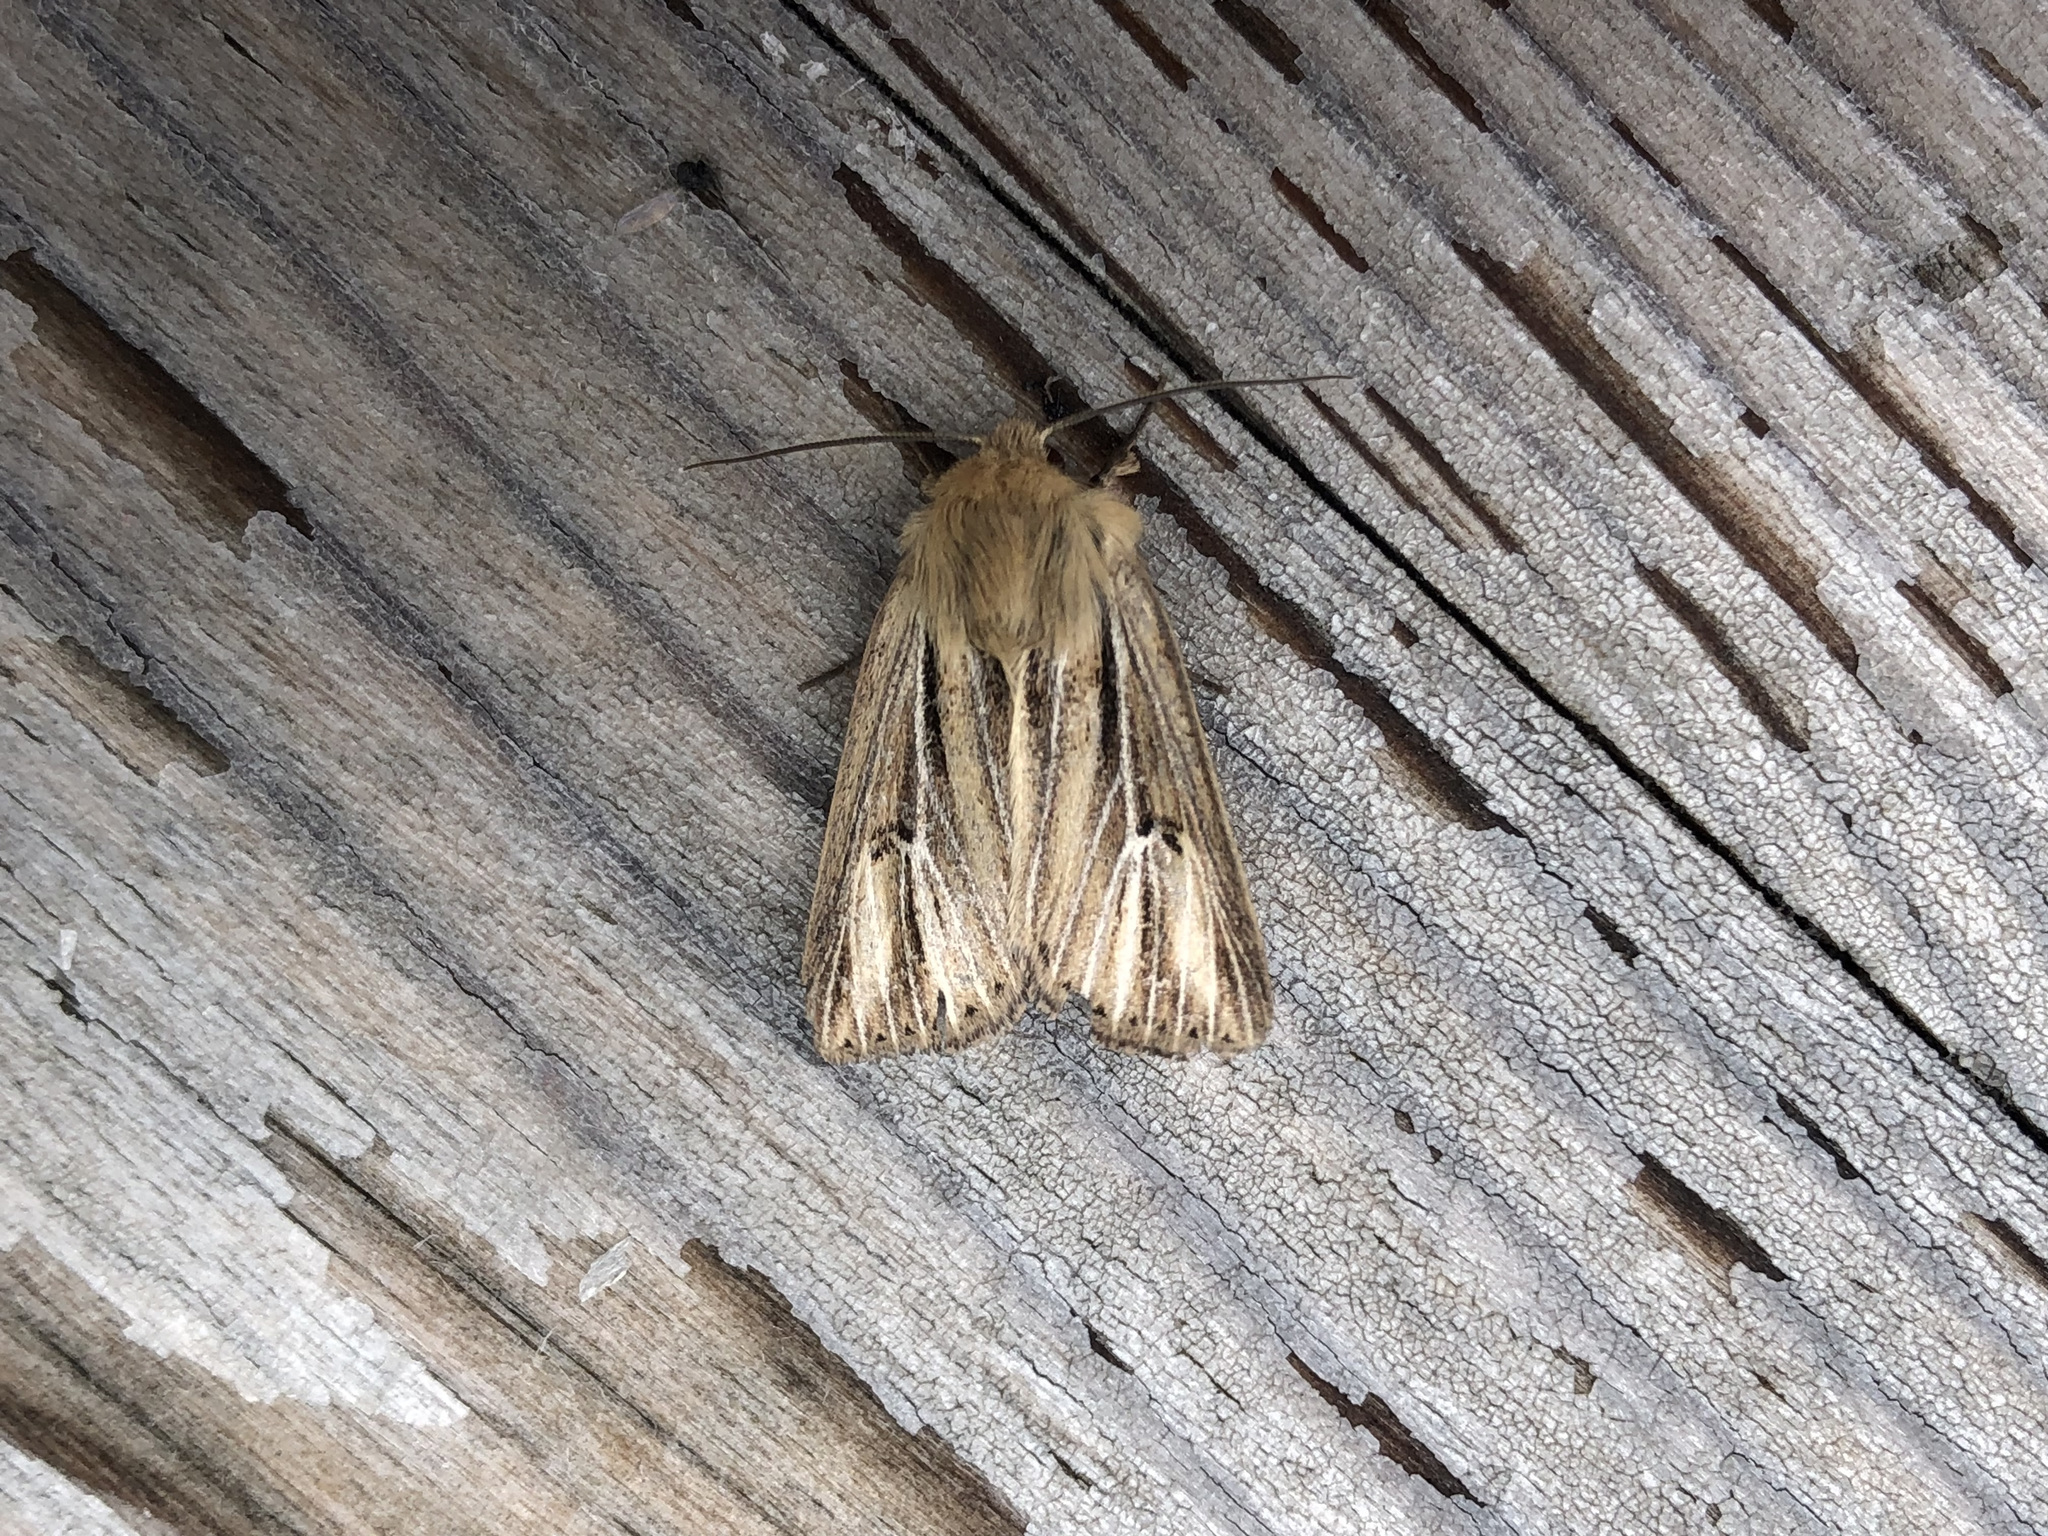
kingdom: Animalia
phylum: Arthropoda
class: Insecta
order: Lepidoptera
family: Noctuidae
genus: Mythimna
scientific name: Mythimna anderreggii
